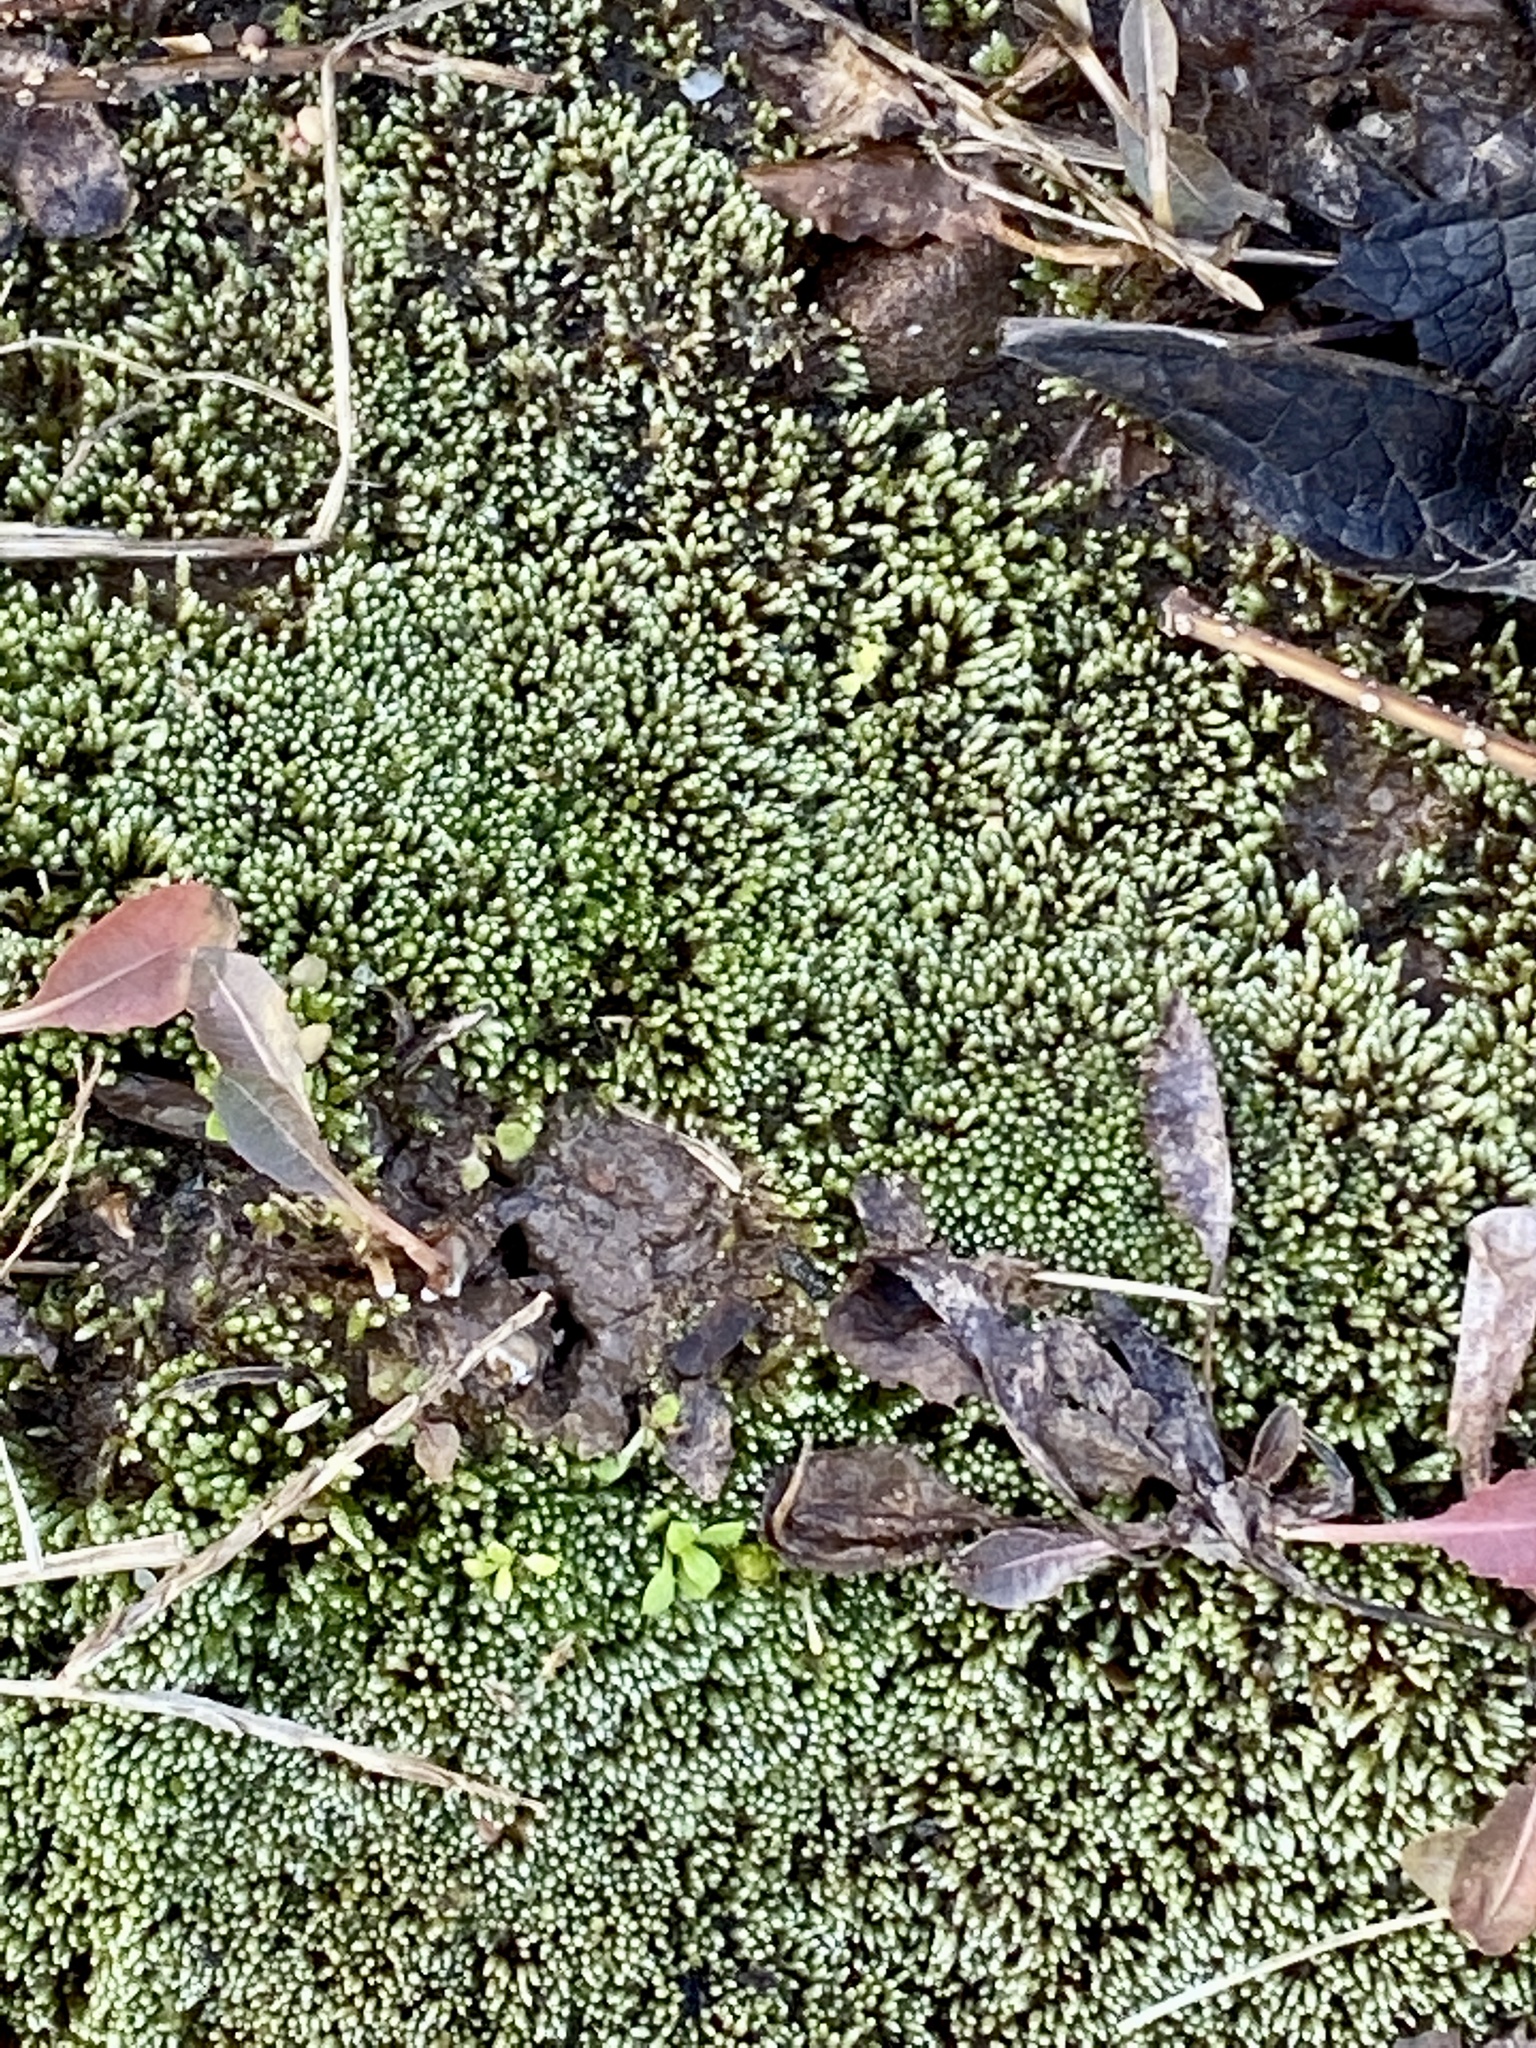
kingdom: Plantae
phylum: Bryophyta
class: Bryopsida
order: Bryales
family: Bryaceae
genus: Bryum
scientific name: Bryum argenteum
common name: Silver-moss
